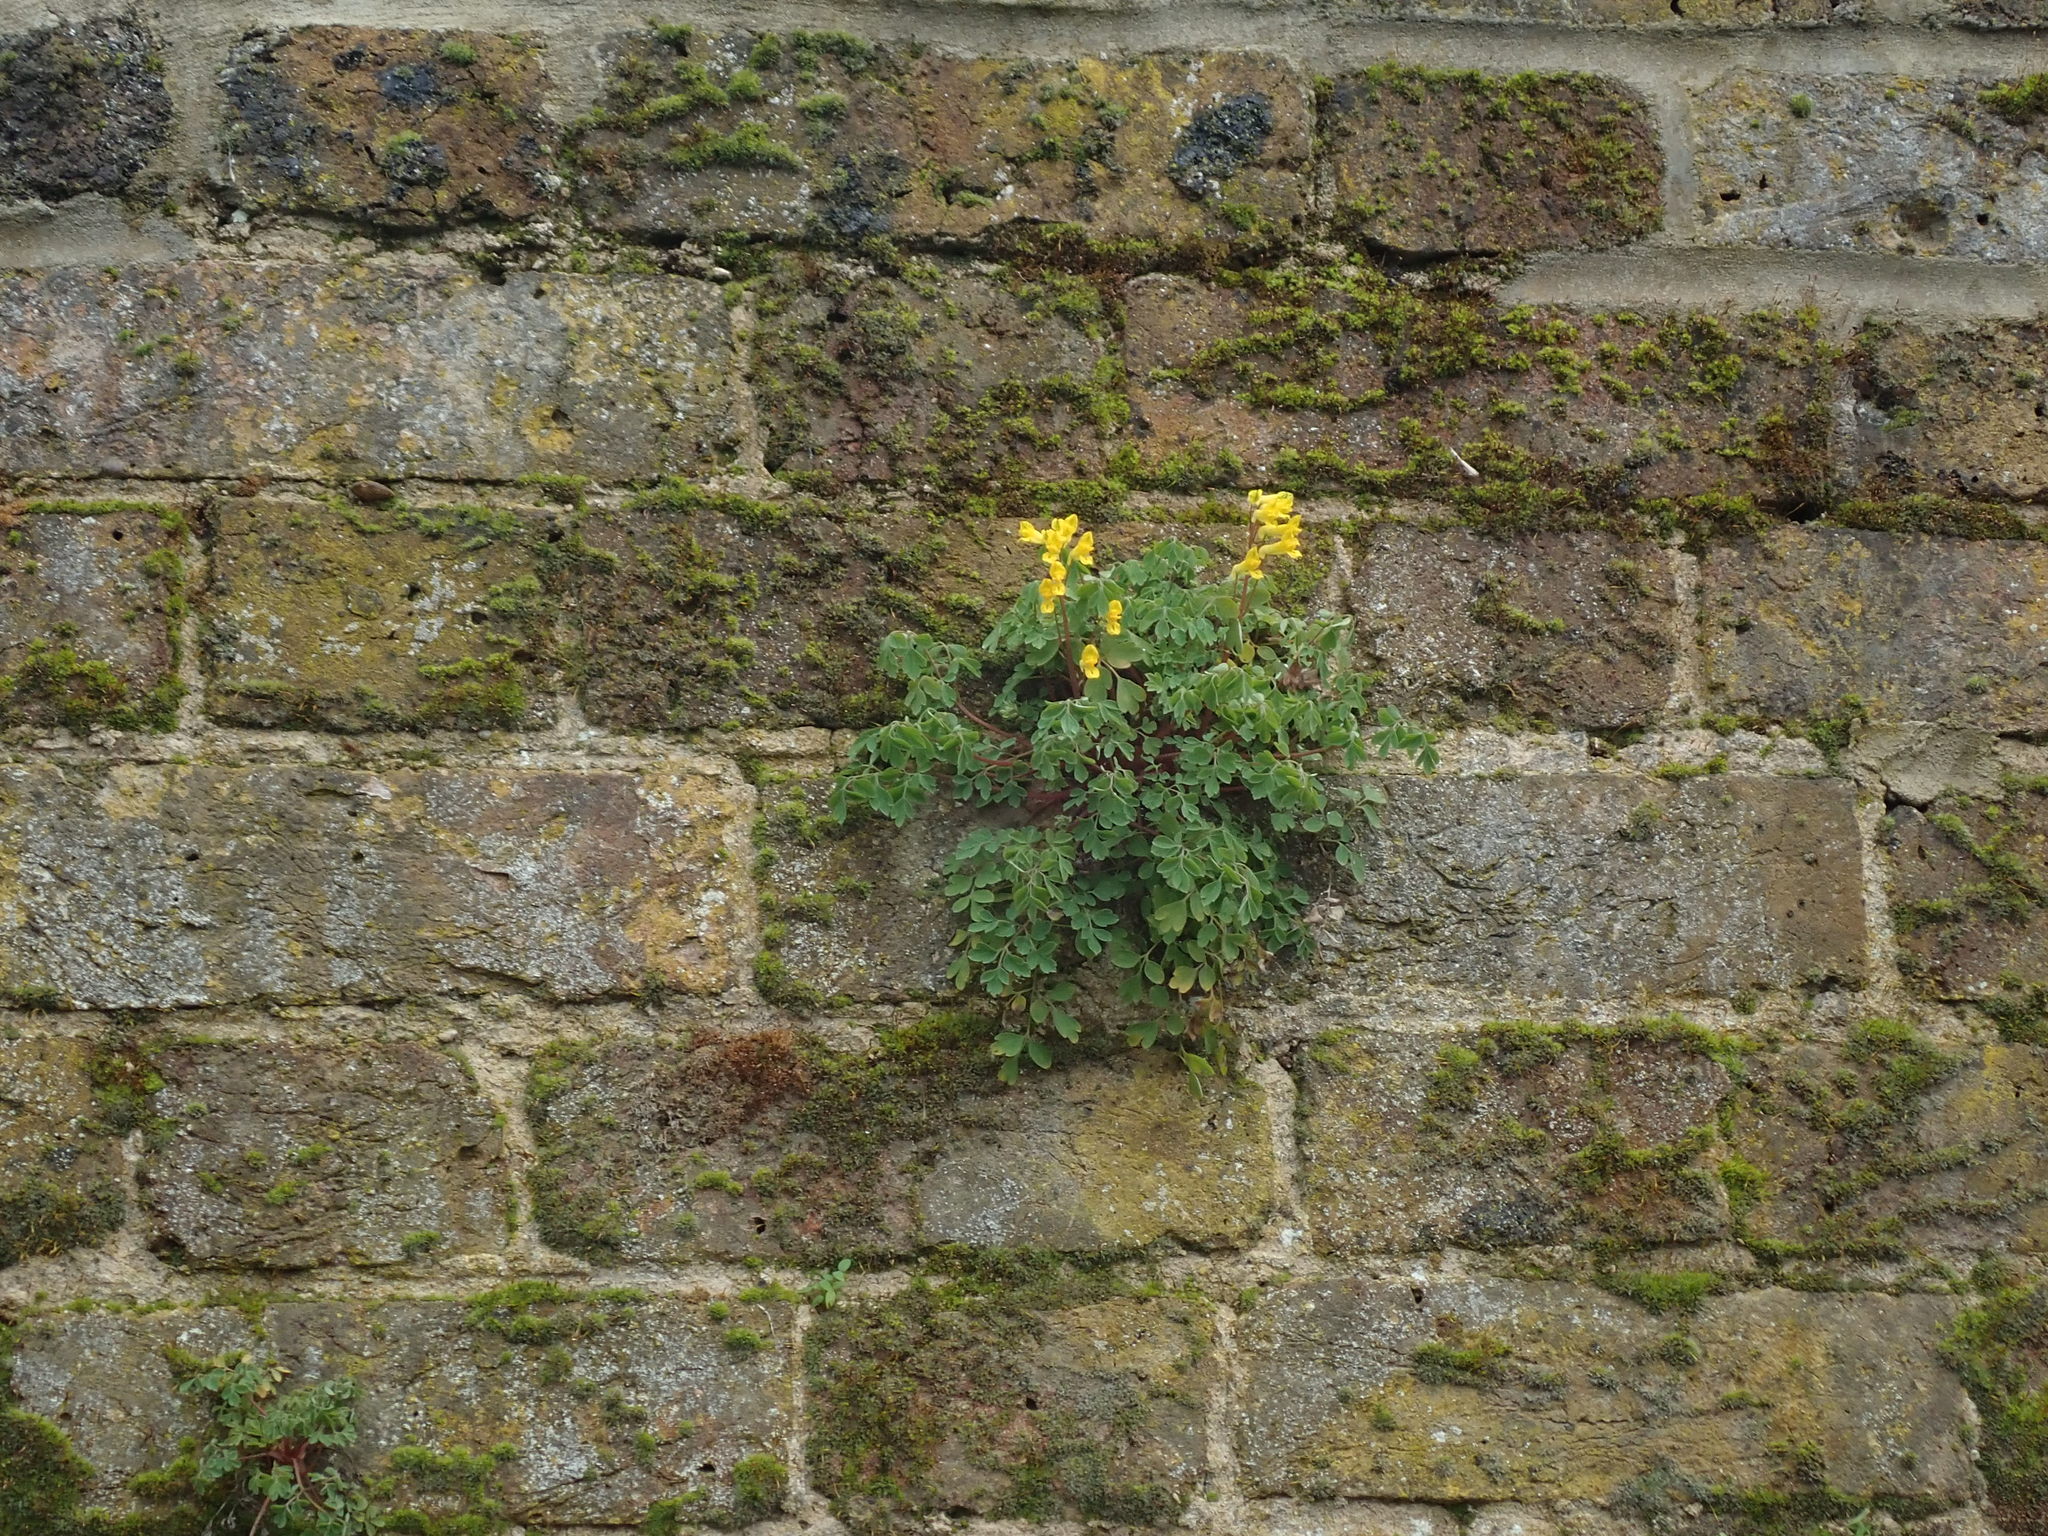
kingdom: Plantae
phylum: Tracheophyta
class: Magnoliopsida
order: Ranunculales
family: Papaveraceae
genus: Pseudofumaria
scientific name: Pseudofumaria lutea
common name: Yellow corydalis
